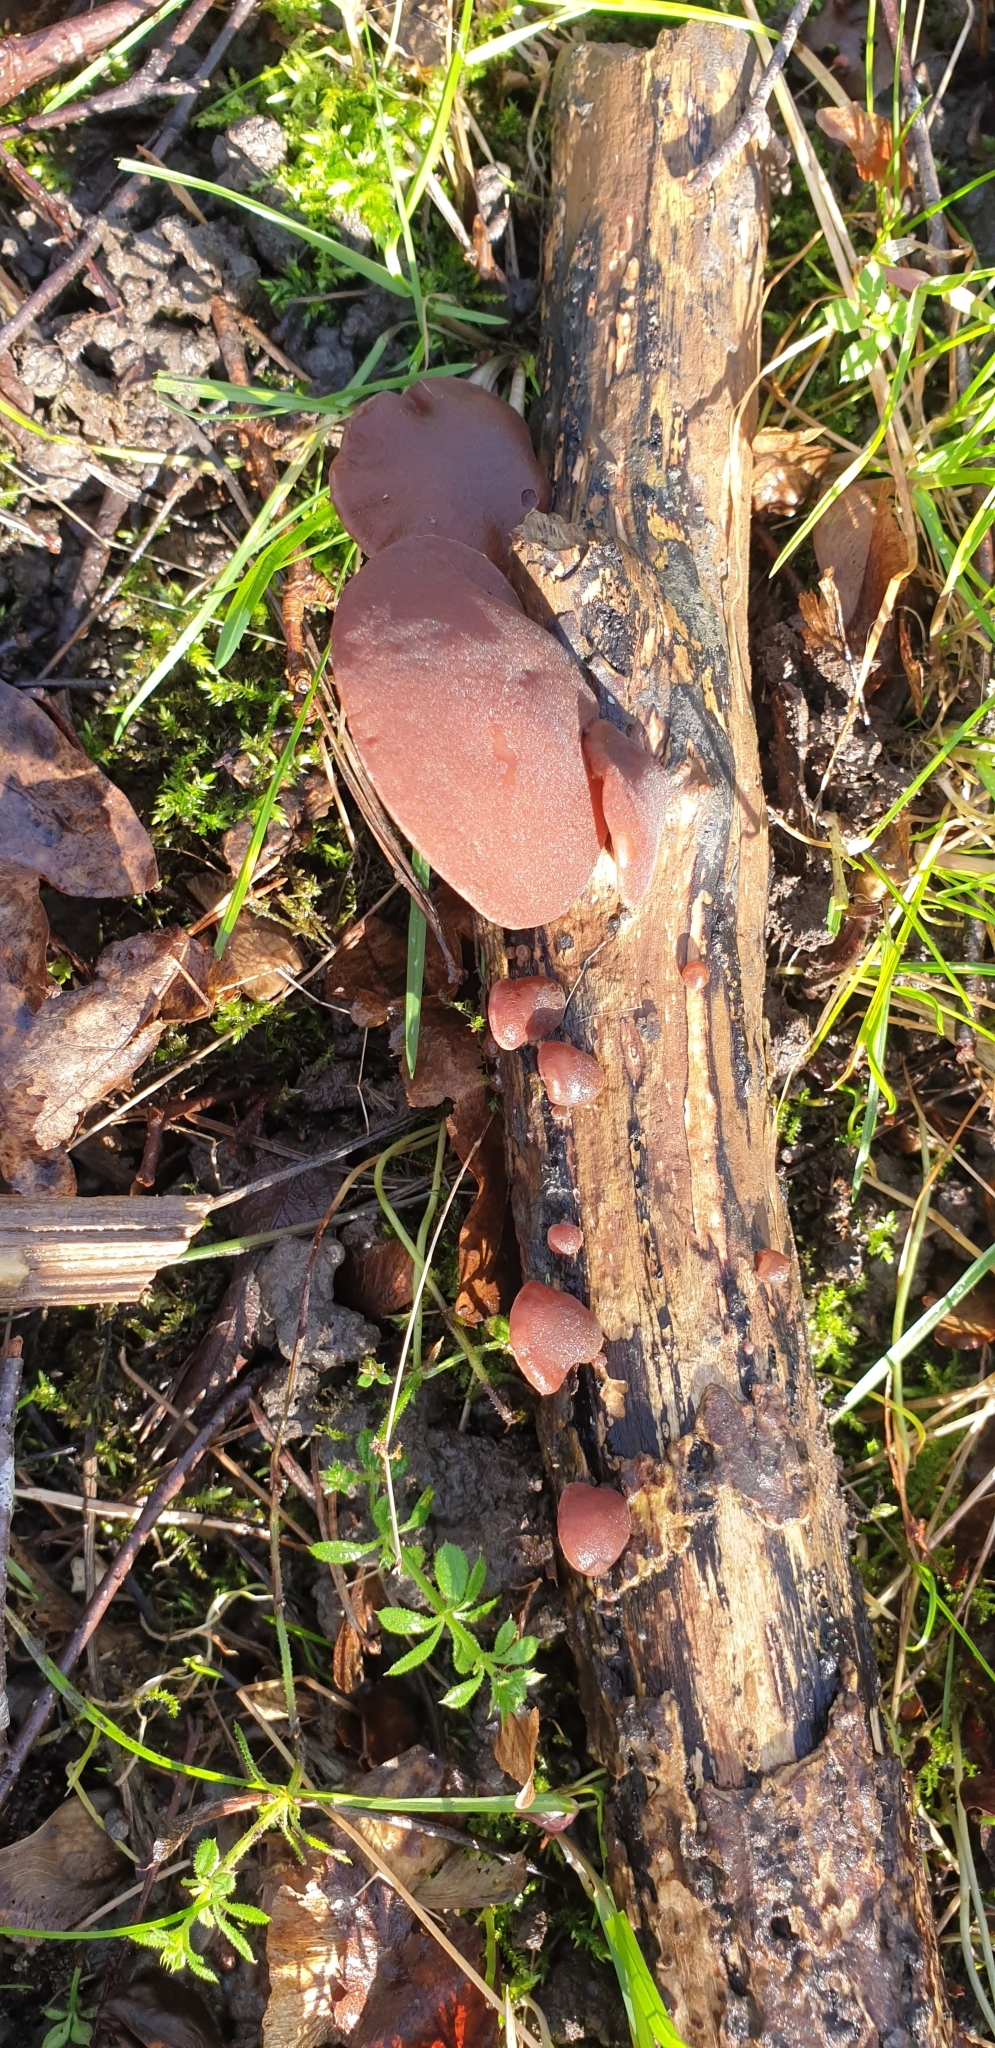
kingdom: Fungi
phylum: Basidiomycota
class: Agaricomycetes
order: Auriculariales
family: Auriculariaceae
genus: Auricularia
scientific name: Auricularia auricula-judae
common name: Jelly ear
